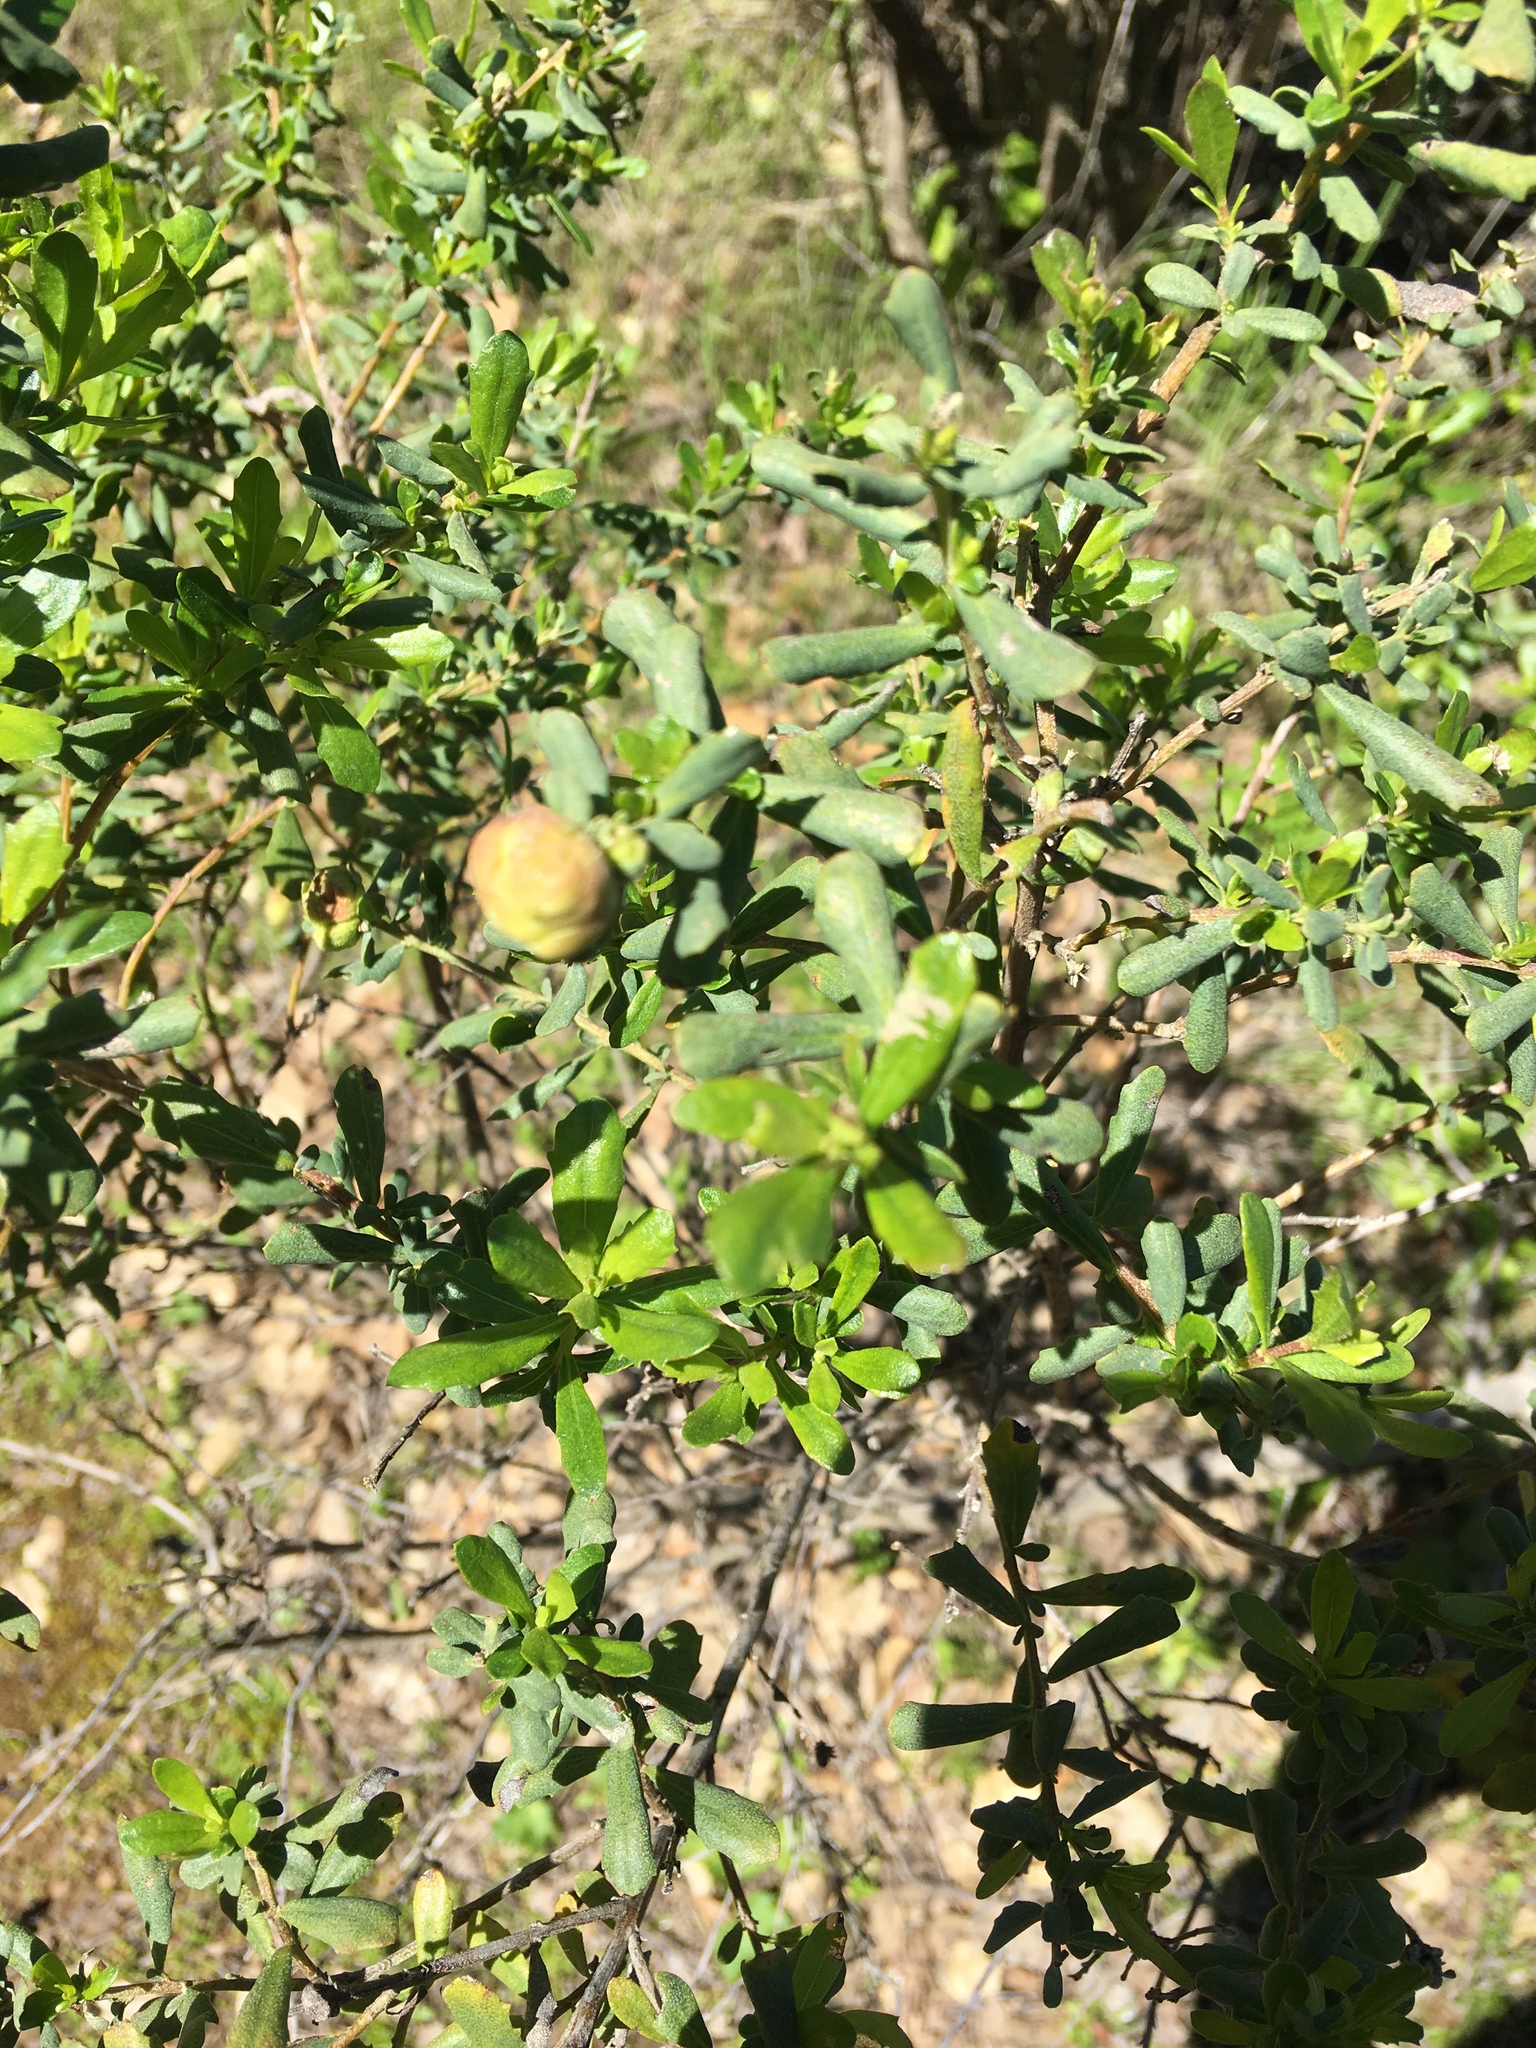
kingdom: Plantae
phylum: Tracheophyta
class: Magnoliopsida
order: Asterales
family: Asteraceae
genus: Baccharis
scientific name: Baccharis pilularis
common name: Coyotebrush
